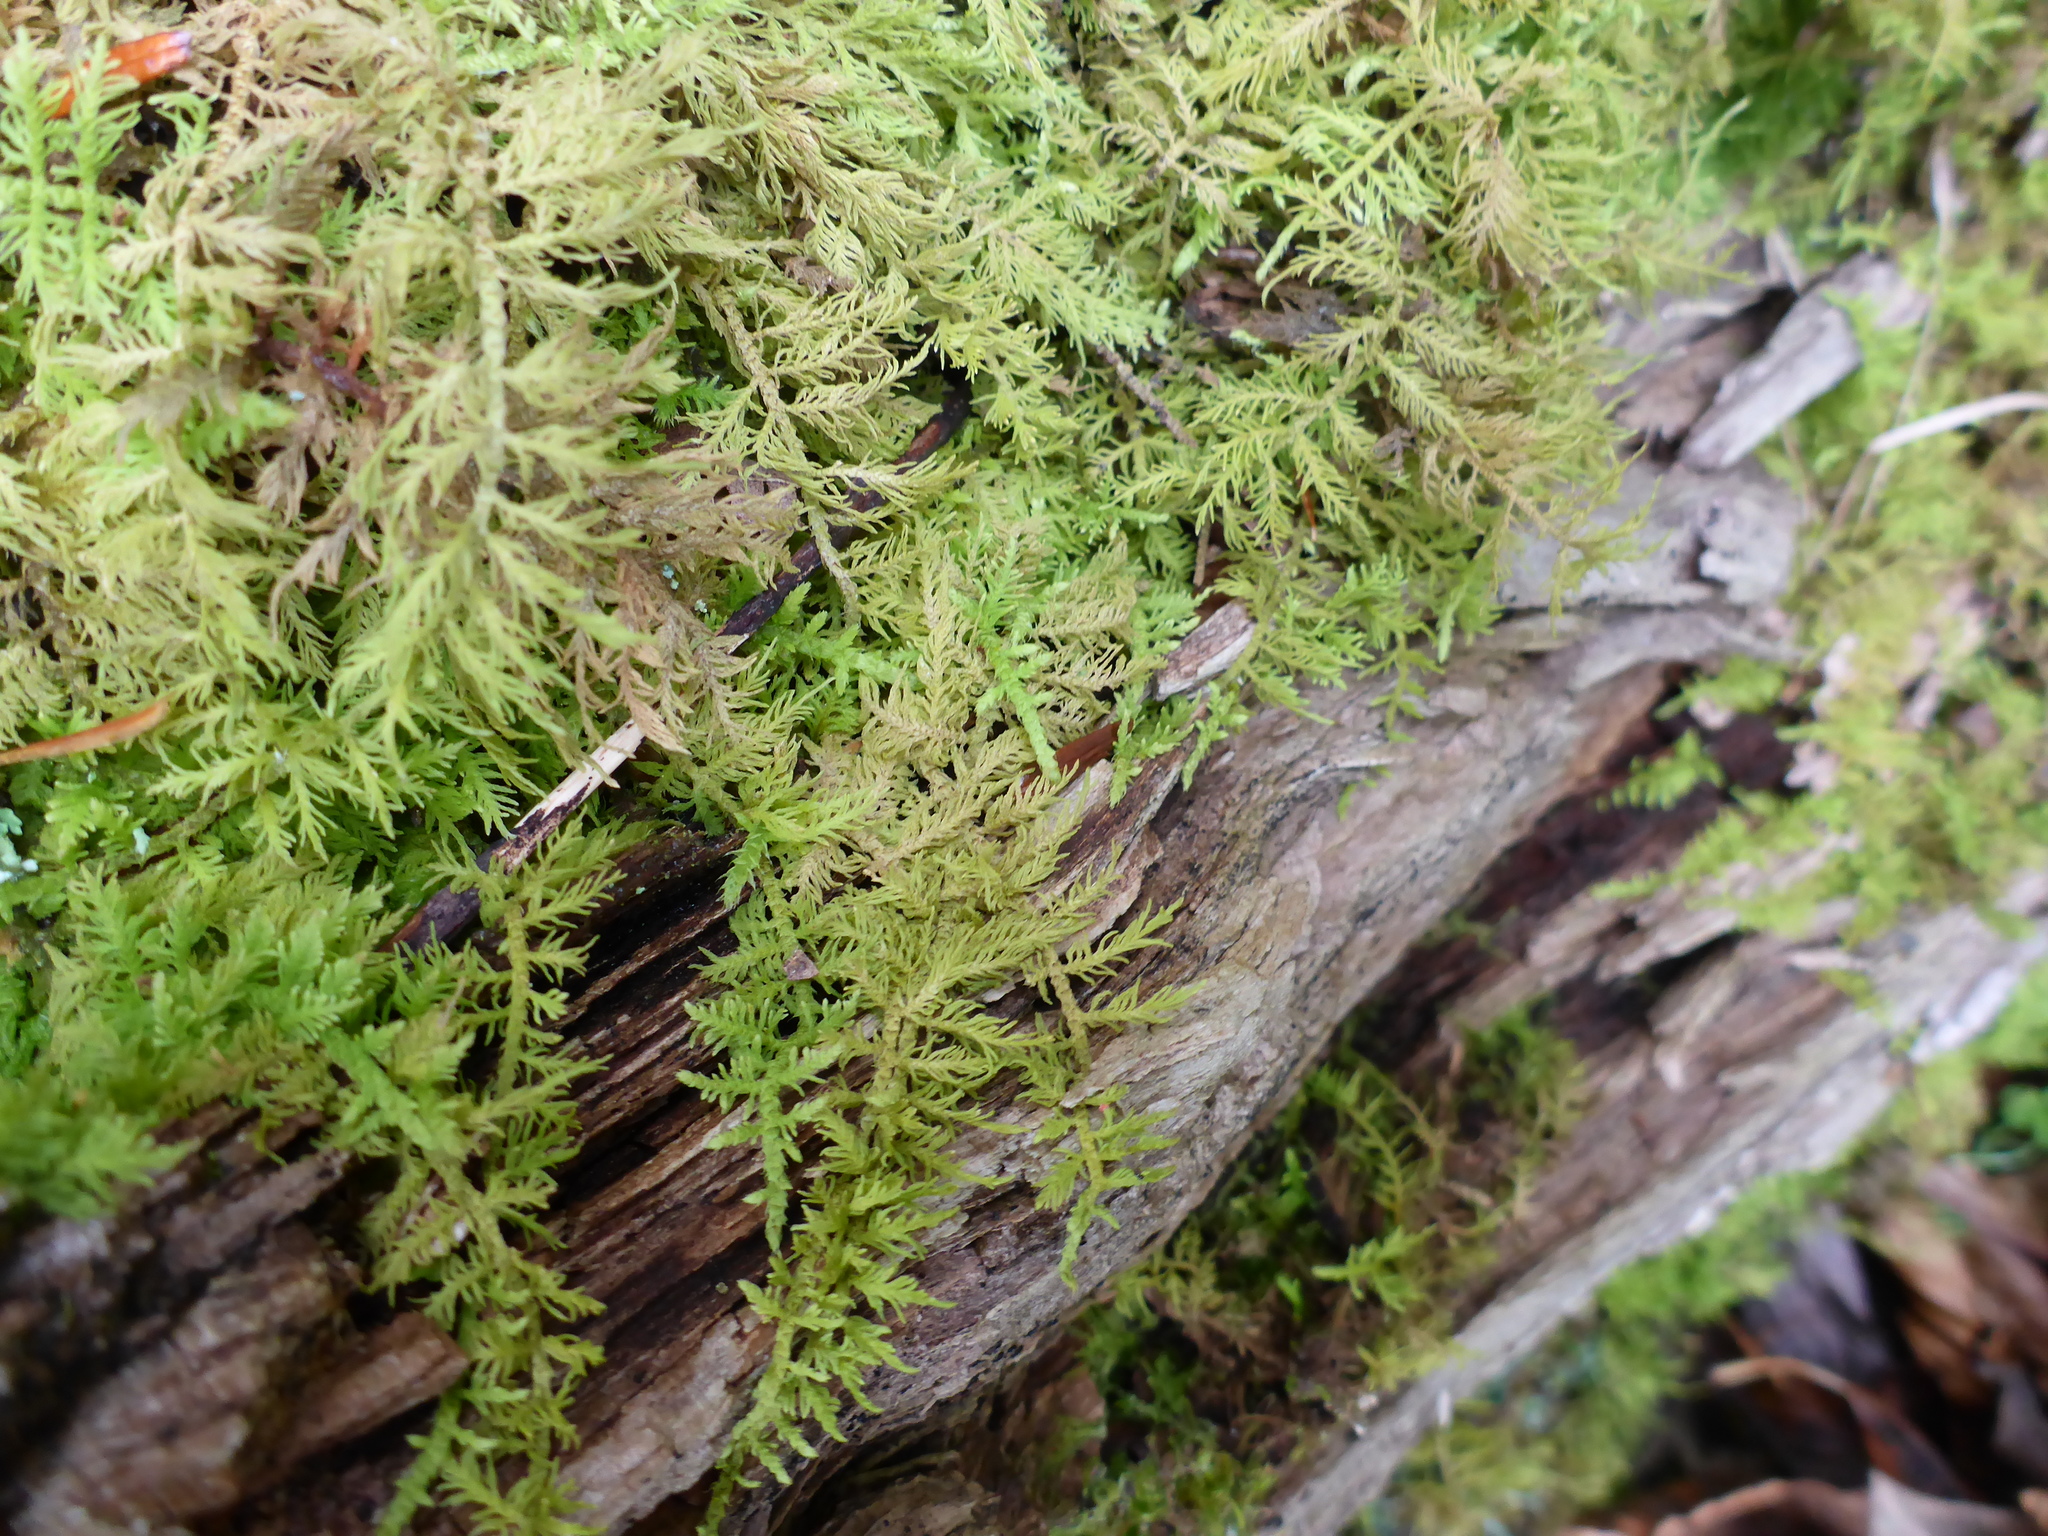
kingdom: Plantae
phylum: Bryophyta
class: Bryopsida
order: Hypnales
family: Thuidiaceae
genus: Thuidium
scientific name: Thuidium delicatulum
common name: Delicate fern moss
